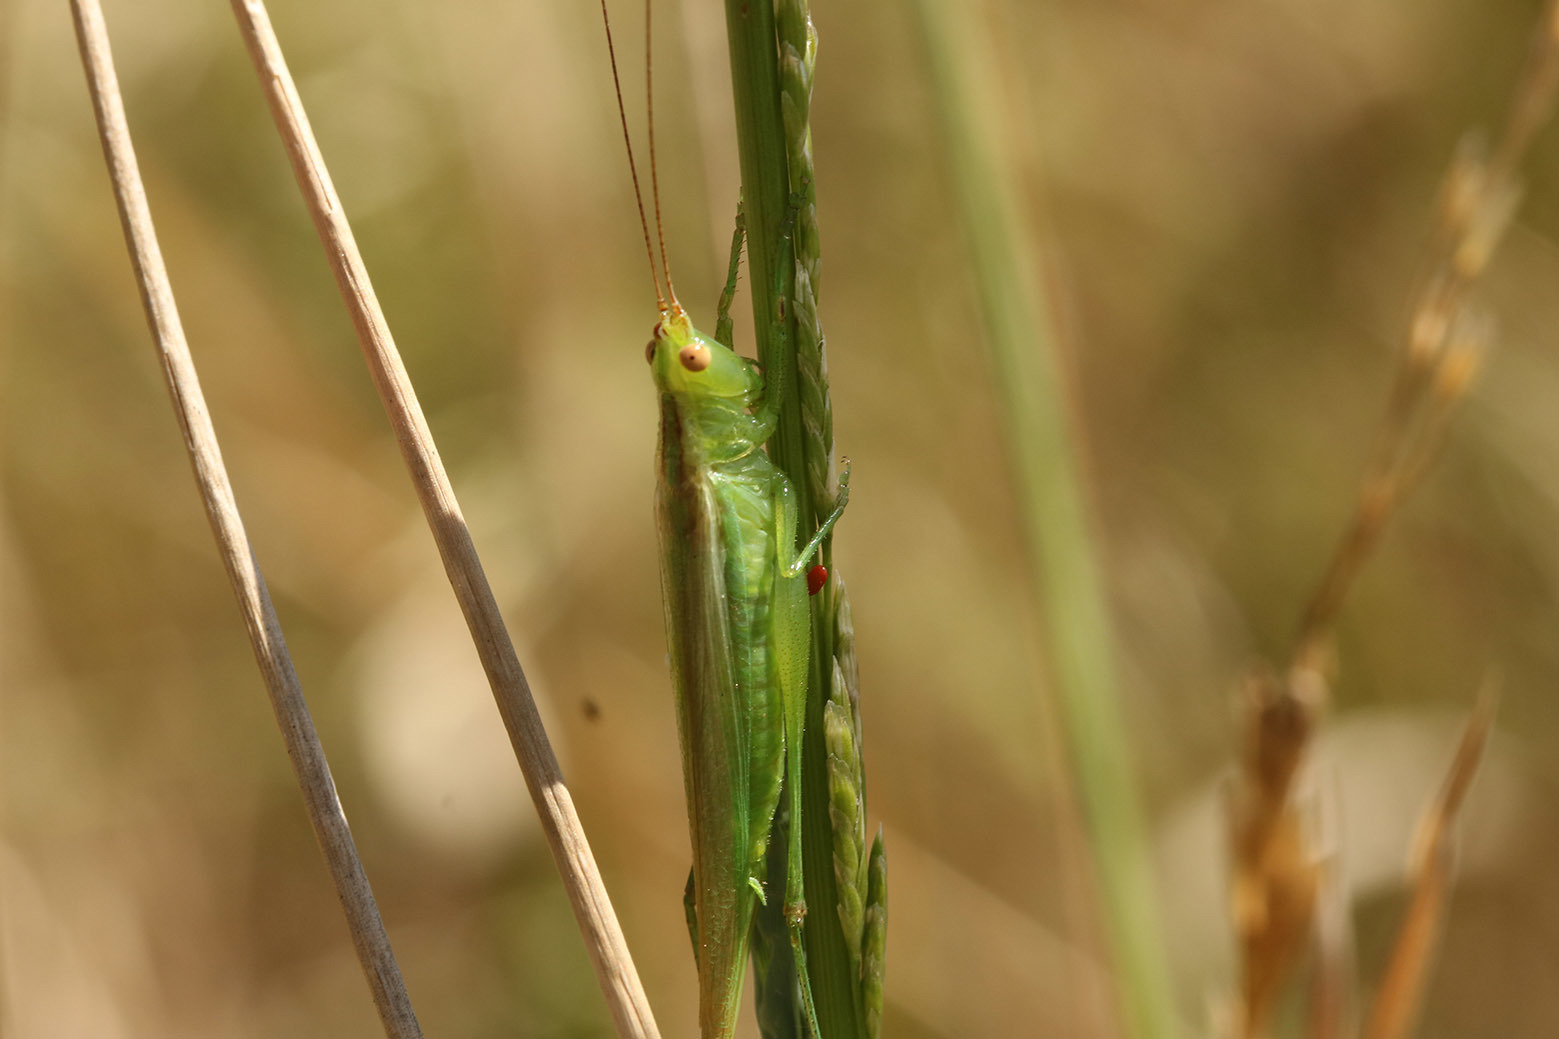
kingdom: Animalia
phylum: Arthropoda
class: Insecta
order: Orthoptera
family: Tettigoniidae
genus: Conocephalus
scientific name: Conocephalus longipes
